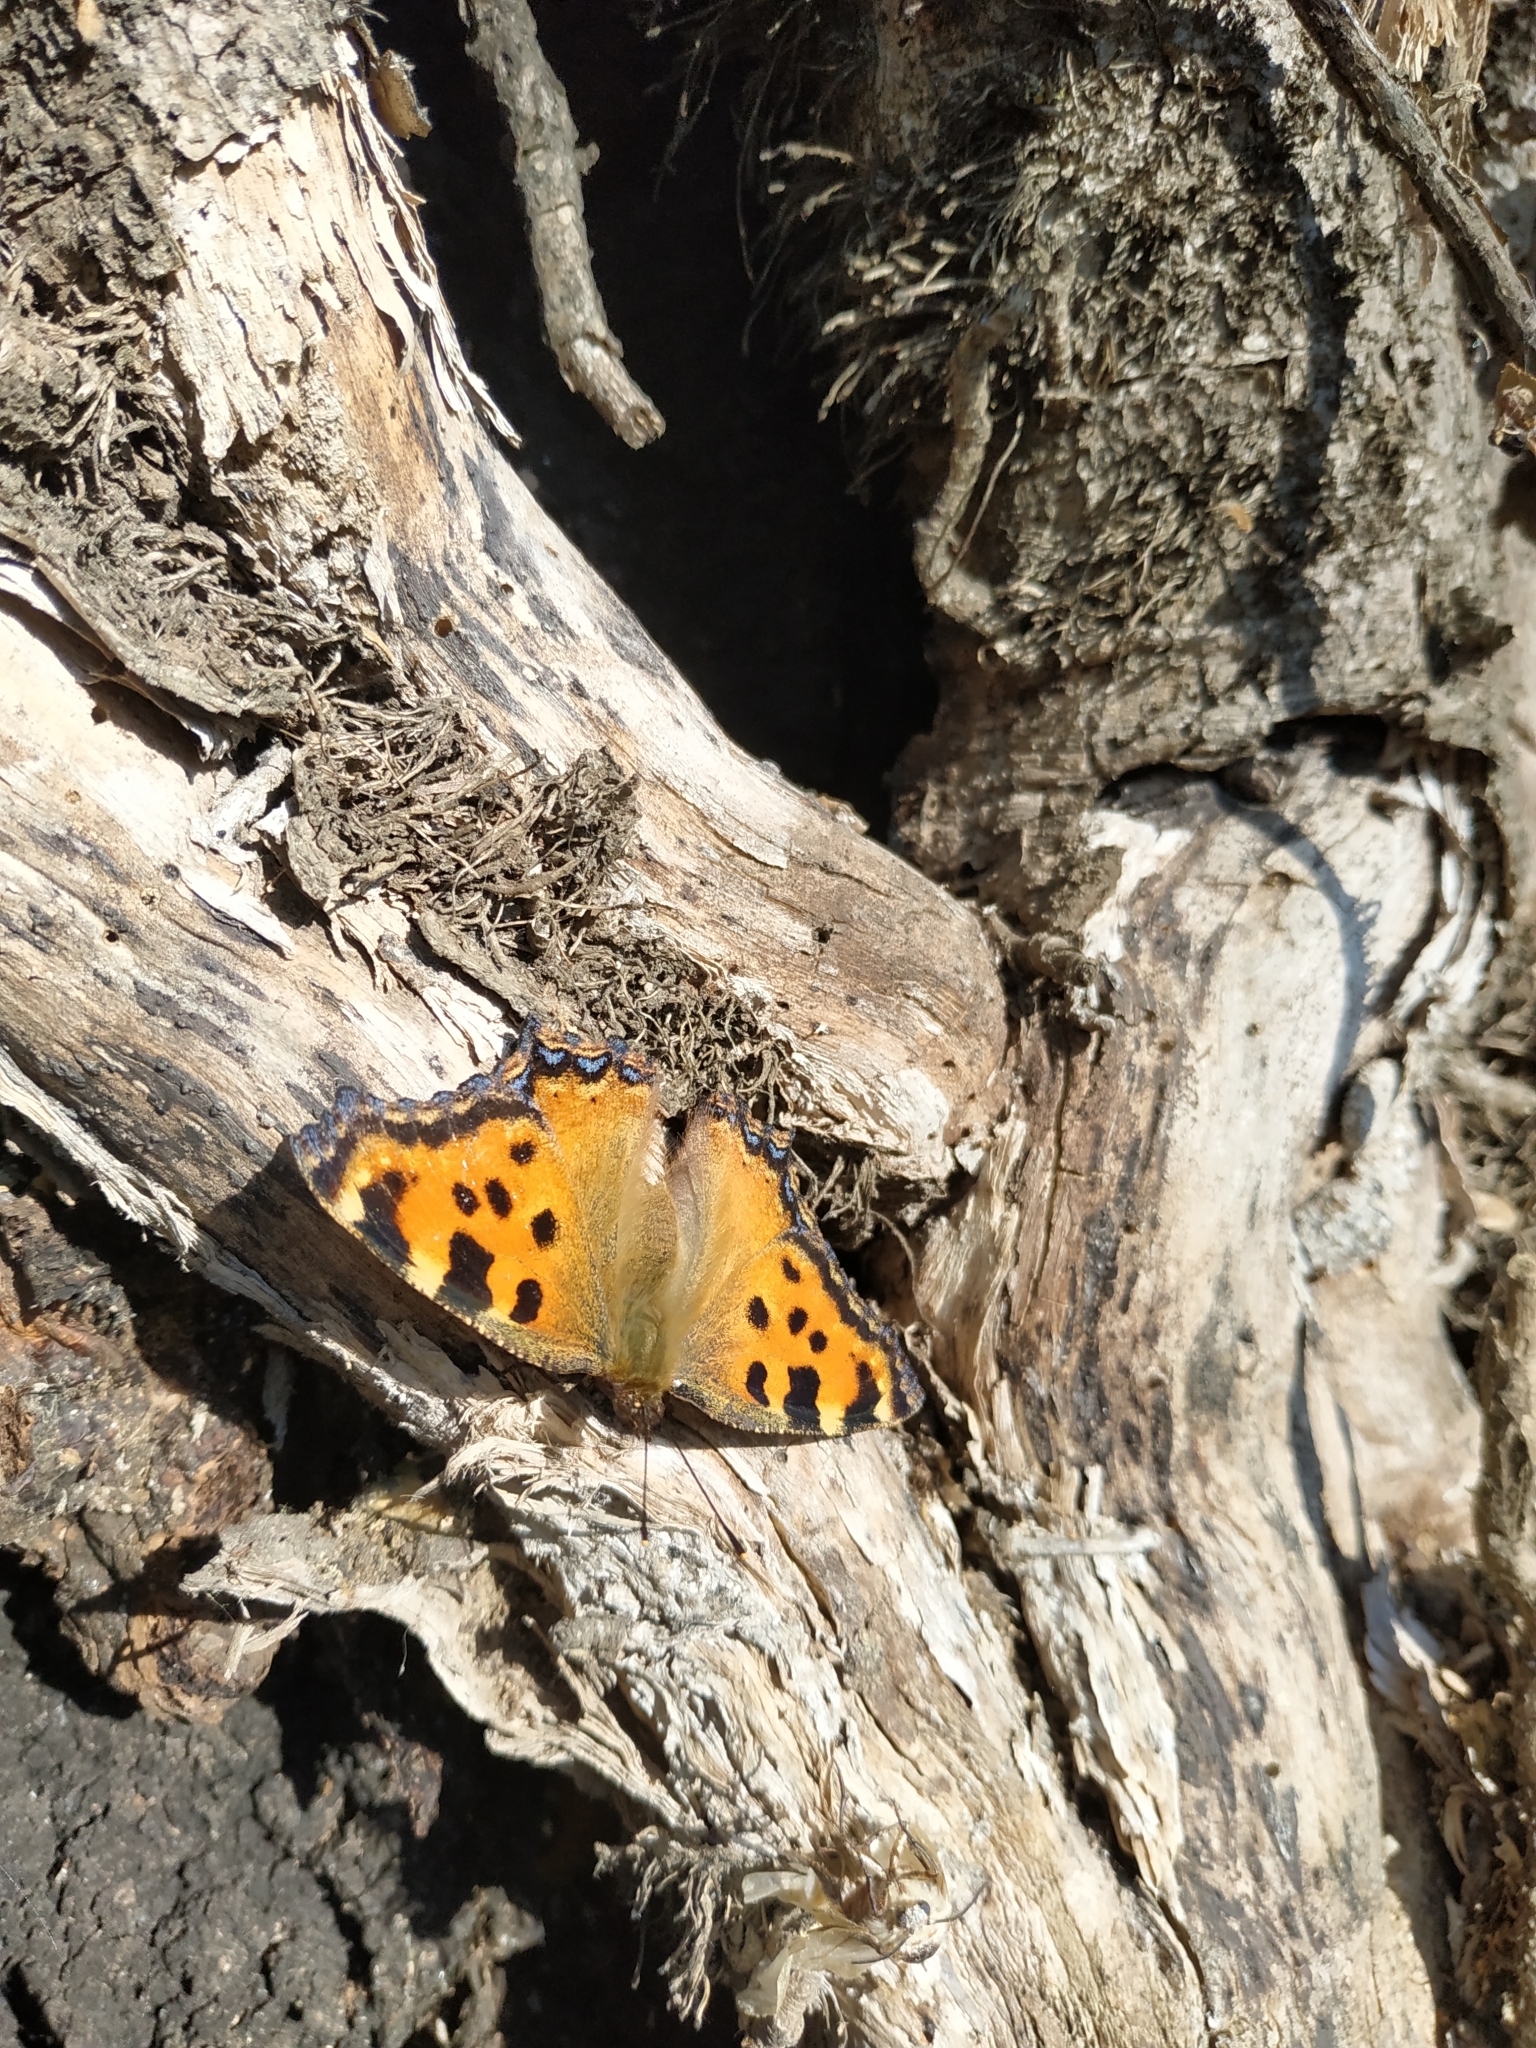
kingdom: Animalia
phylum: Arthropoda
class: Insecta
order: Lepidoptera
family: Nymphalidae
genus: Nymphalis
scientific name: Nymphalis polychloros
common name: Large tortoiseshell
